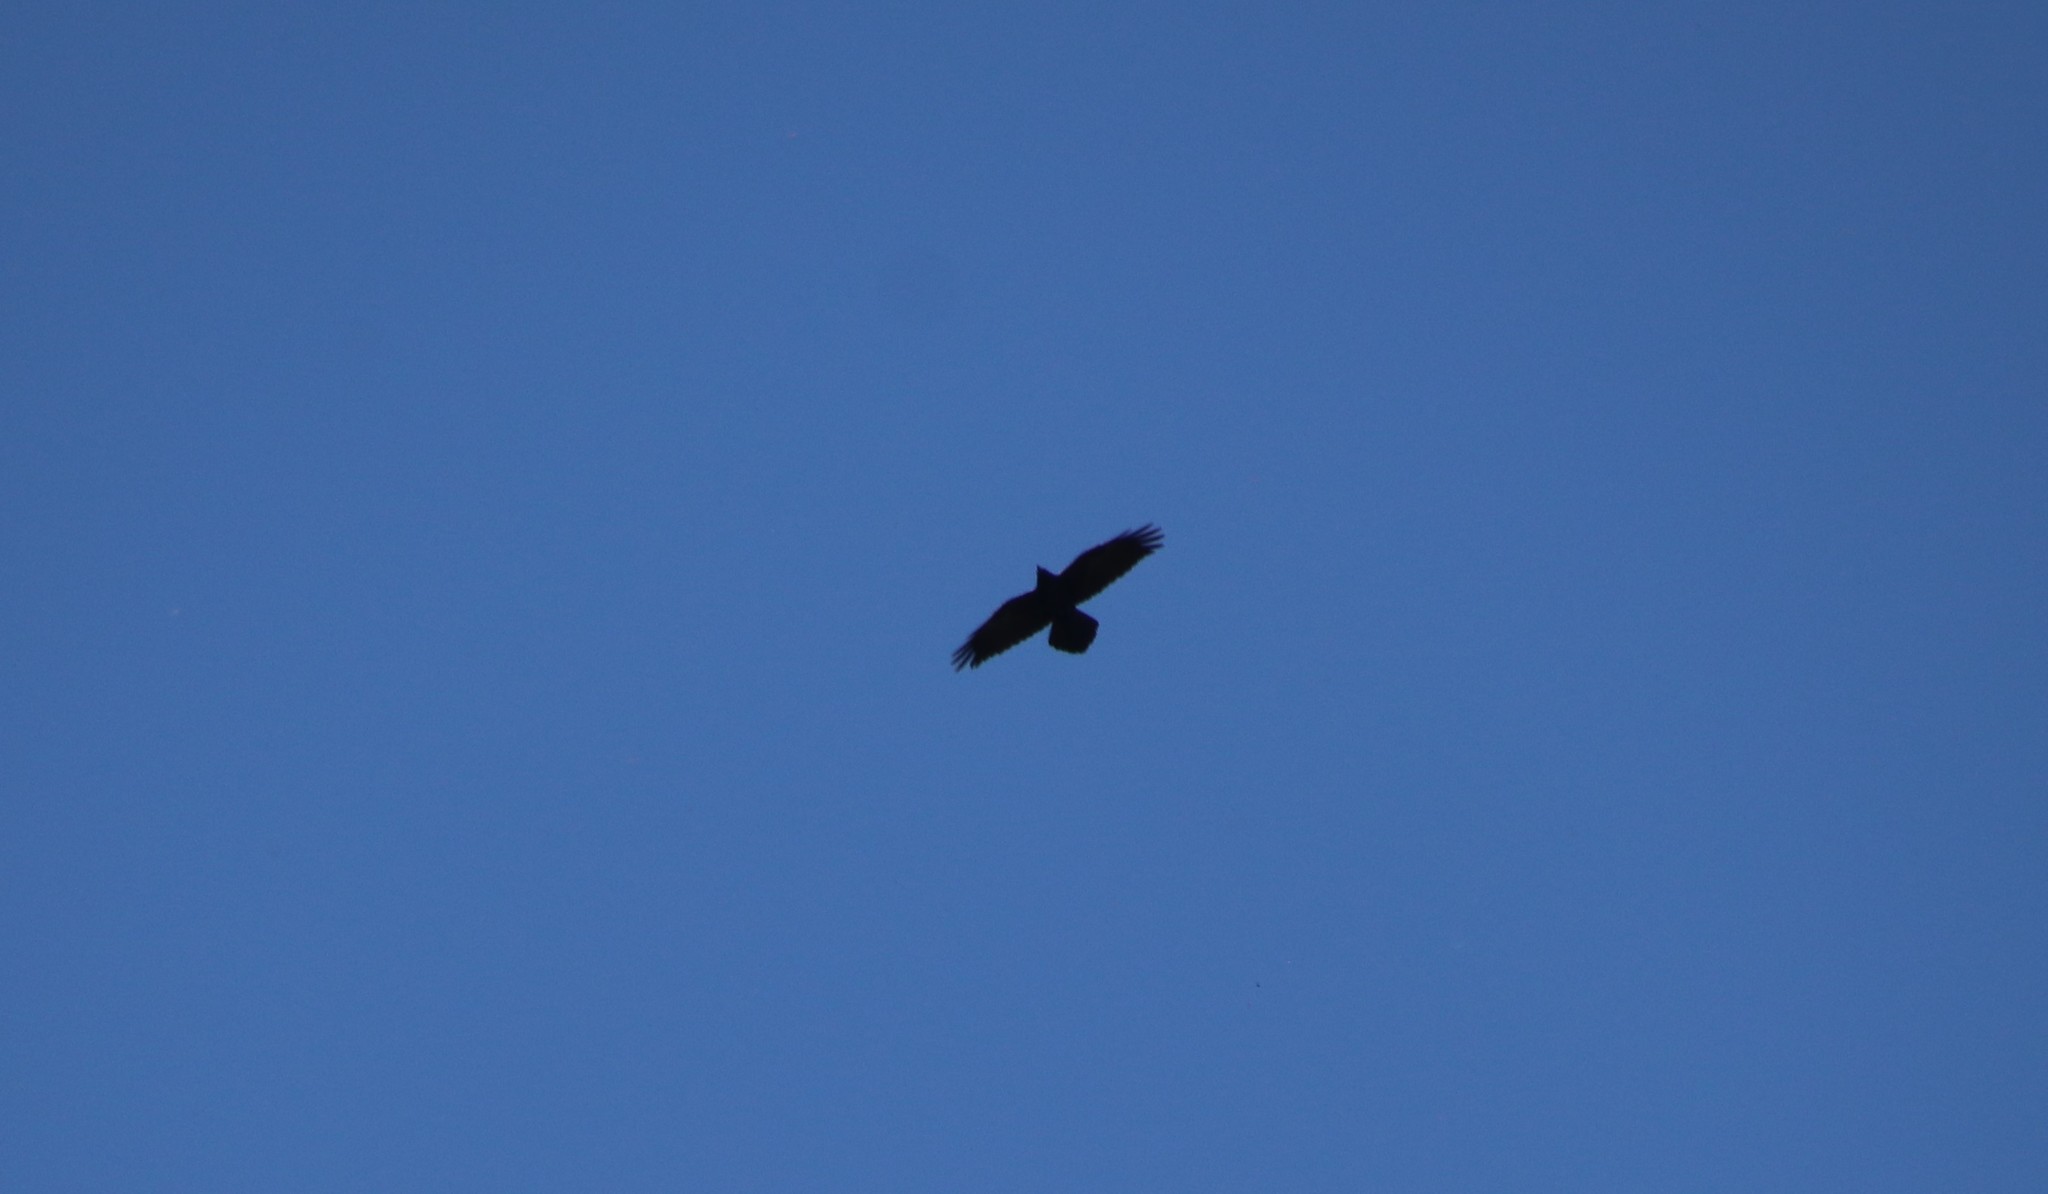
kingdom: Animalia
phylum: Chordata
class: Aves
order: Passeriformes
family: Corvidae
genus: Corvus
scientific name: Corvus corax
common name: Common raven
